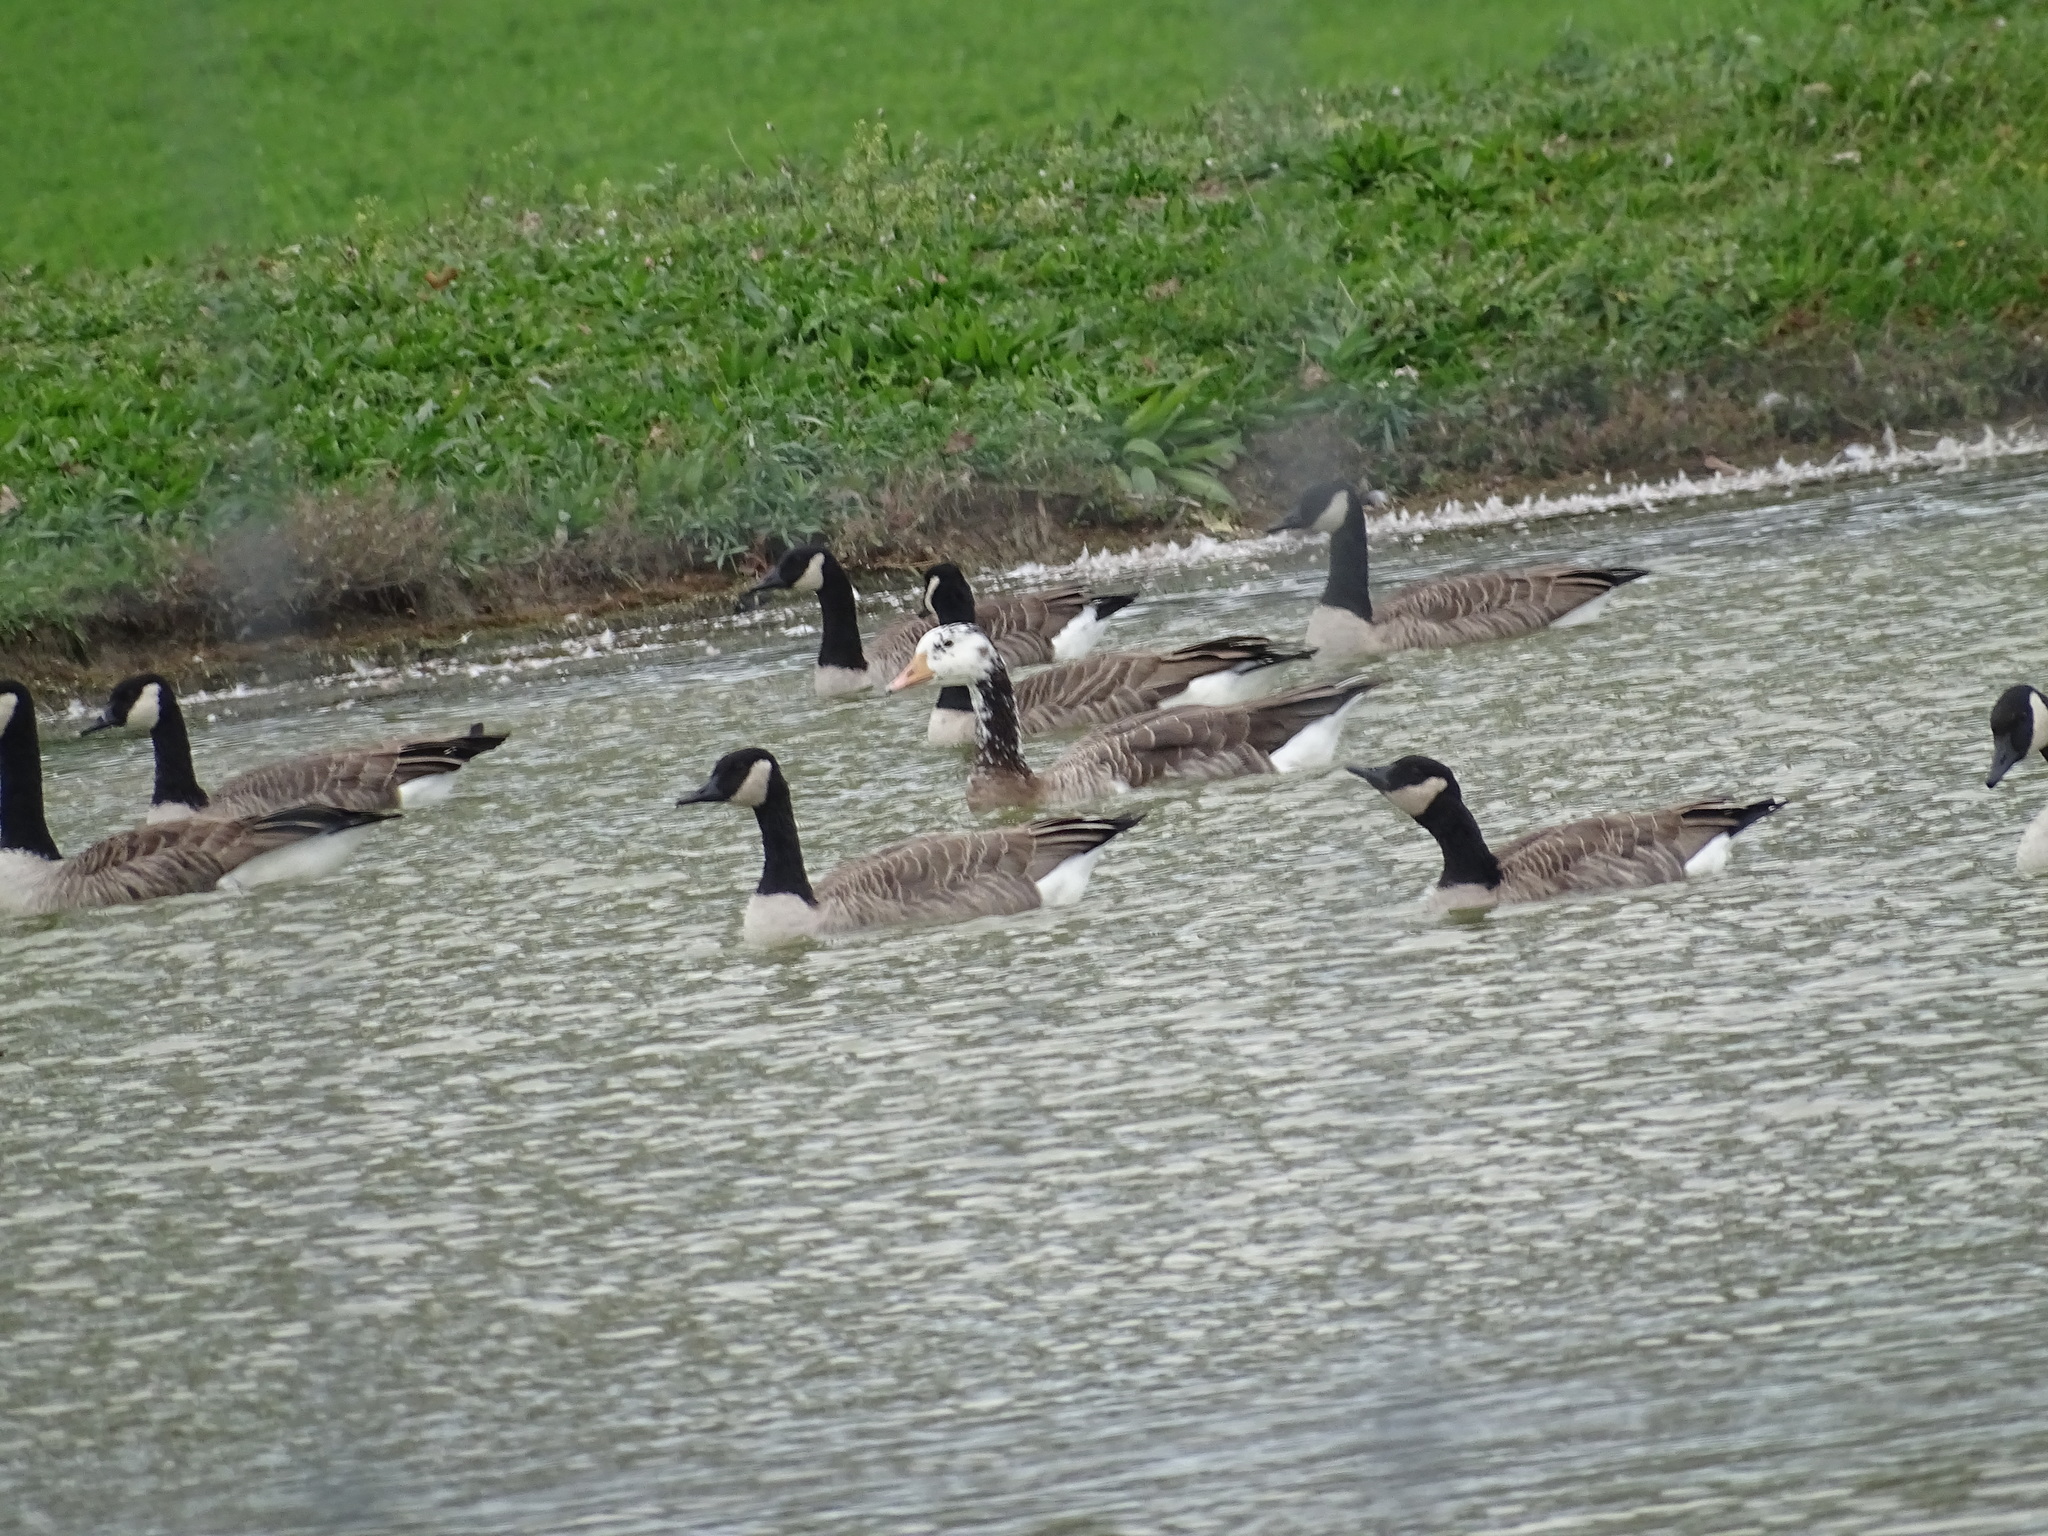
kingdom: Animalia
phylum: Chordata
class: Aves
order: Anseriformes
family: Anatidae
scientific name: Anatidae
